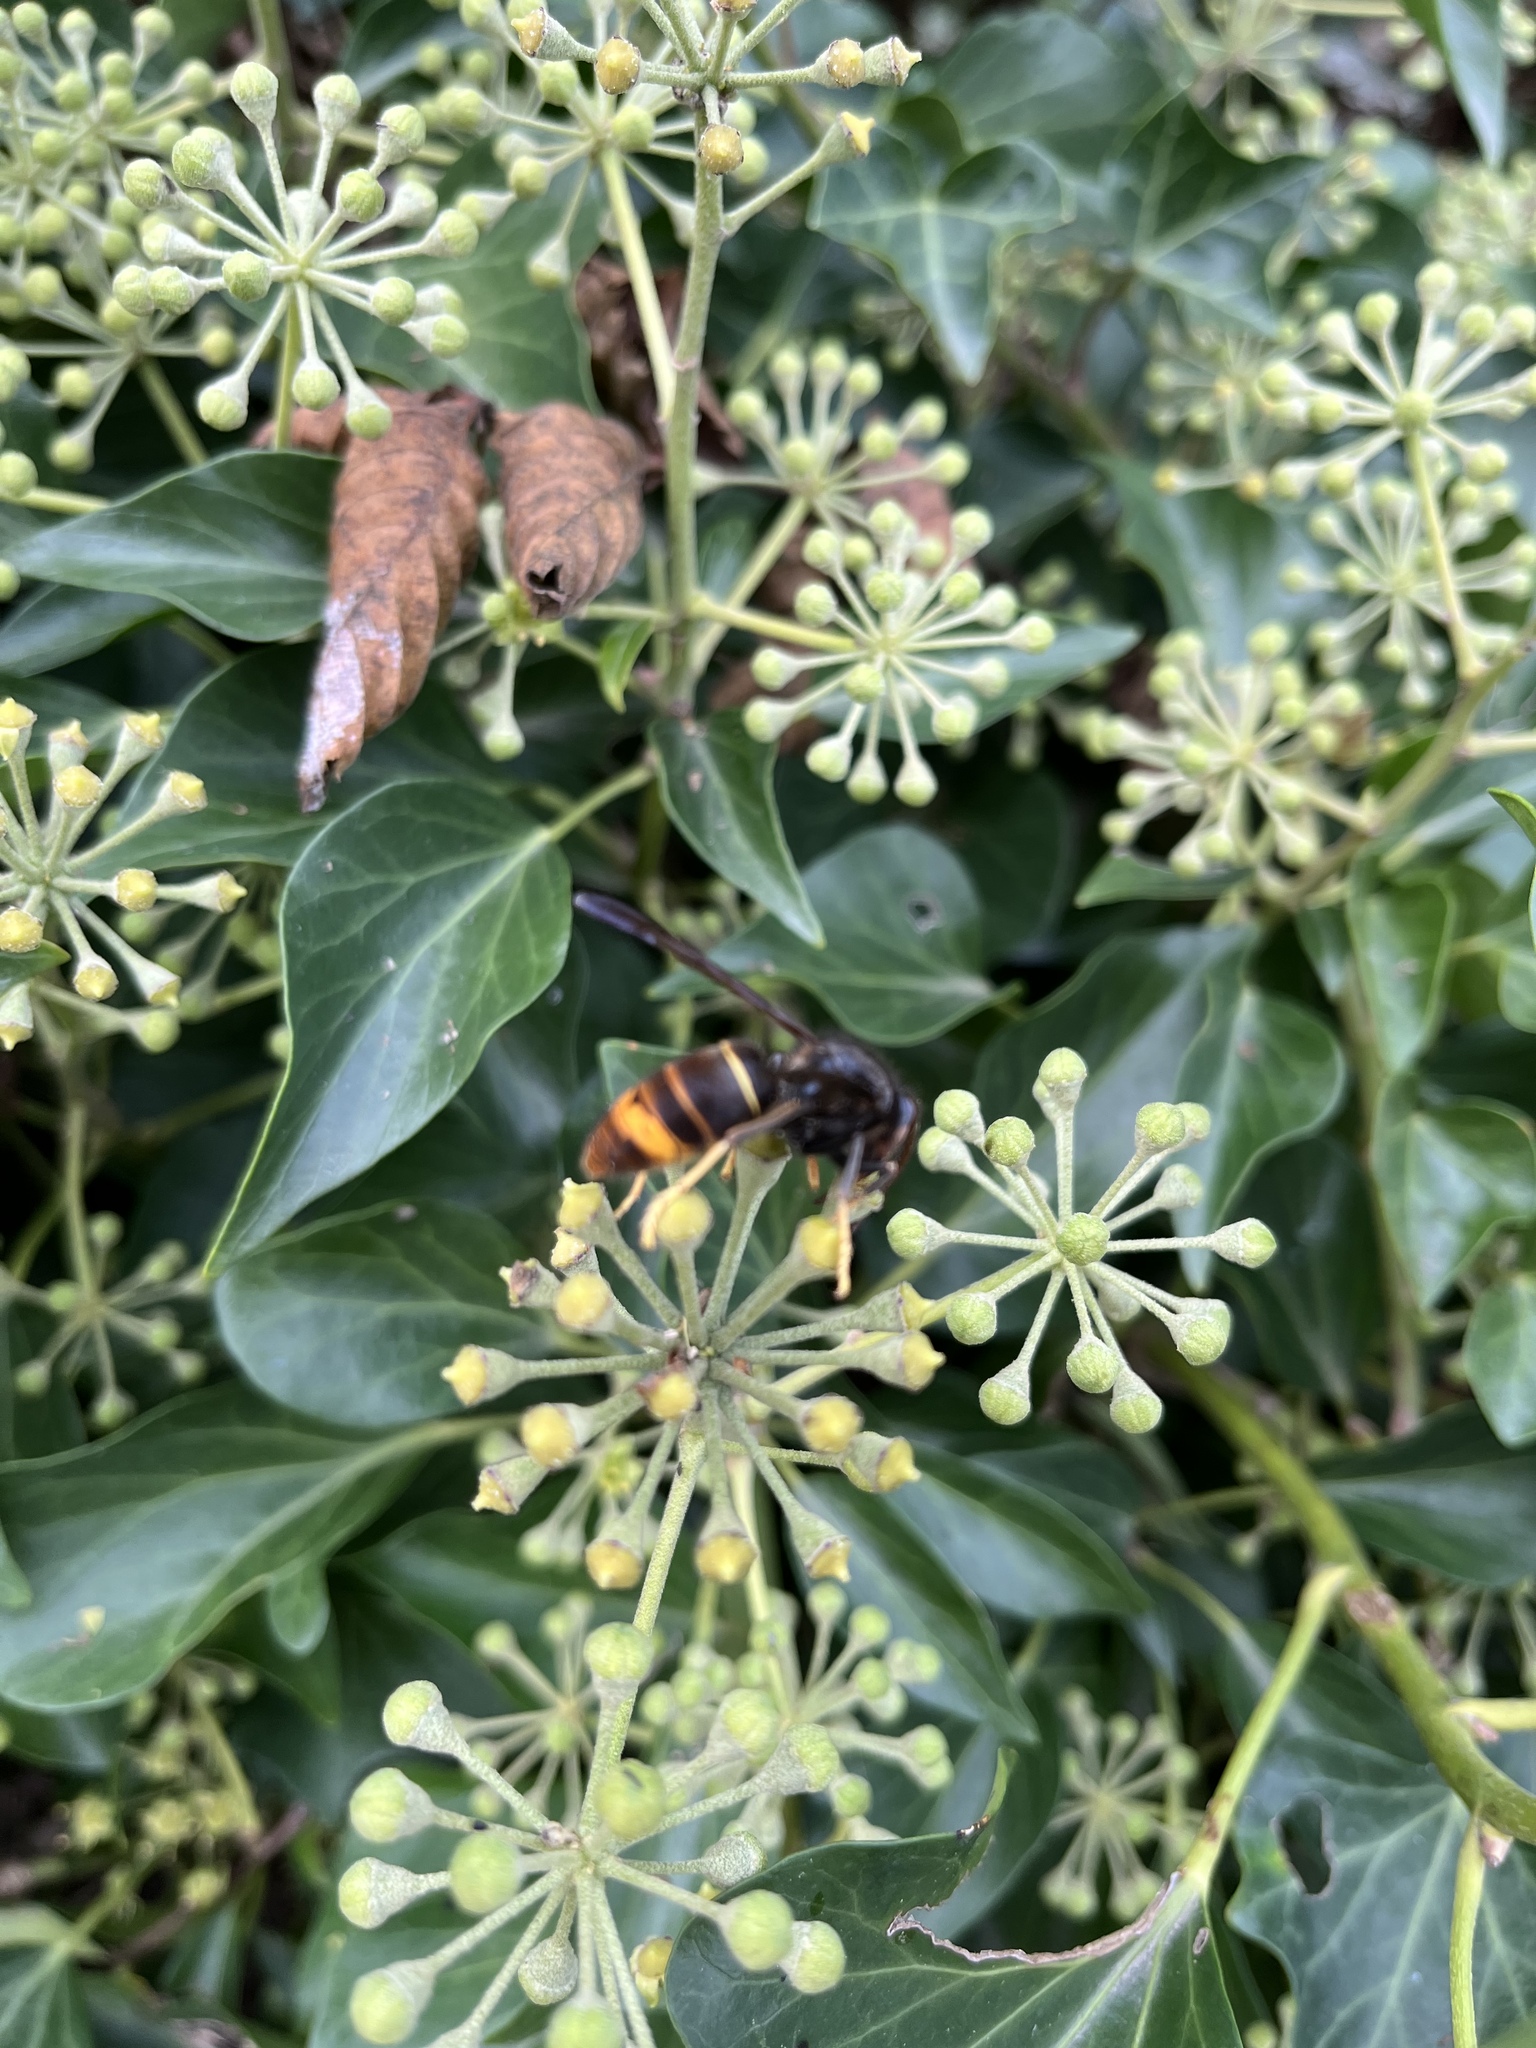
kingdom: Animalia
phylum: Arthropoda
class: Insecta
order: Hymenoptera
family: Vespidae
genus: Vespa
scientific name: Vespa velutina
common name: Asian hornet
